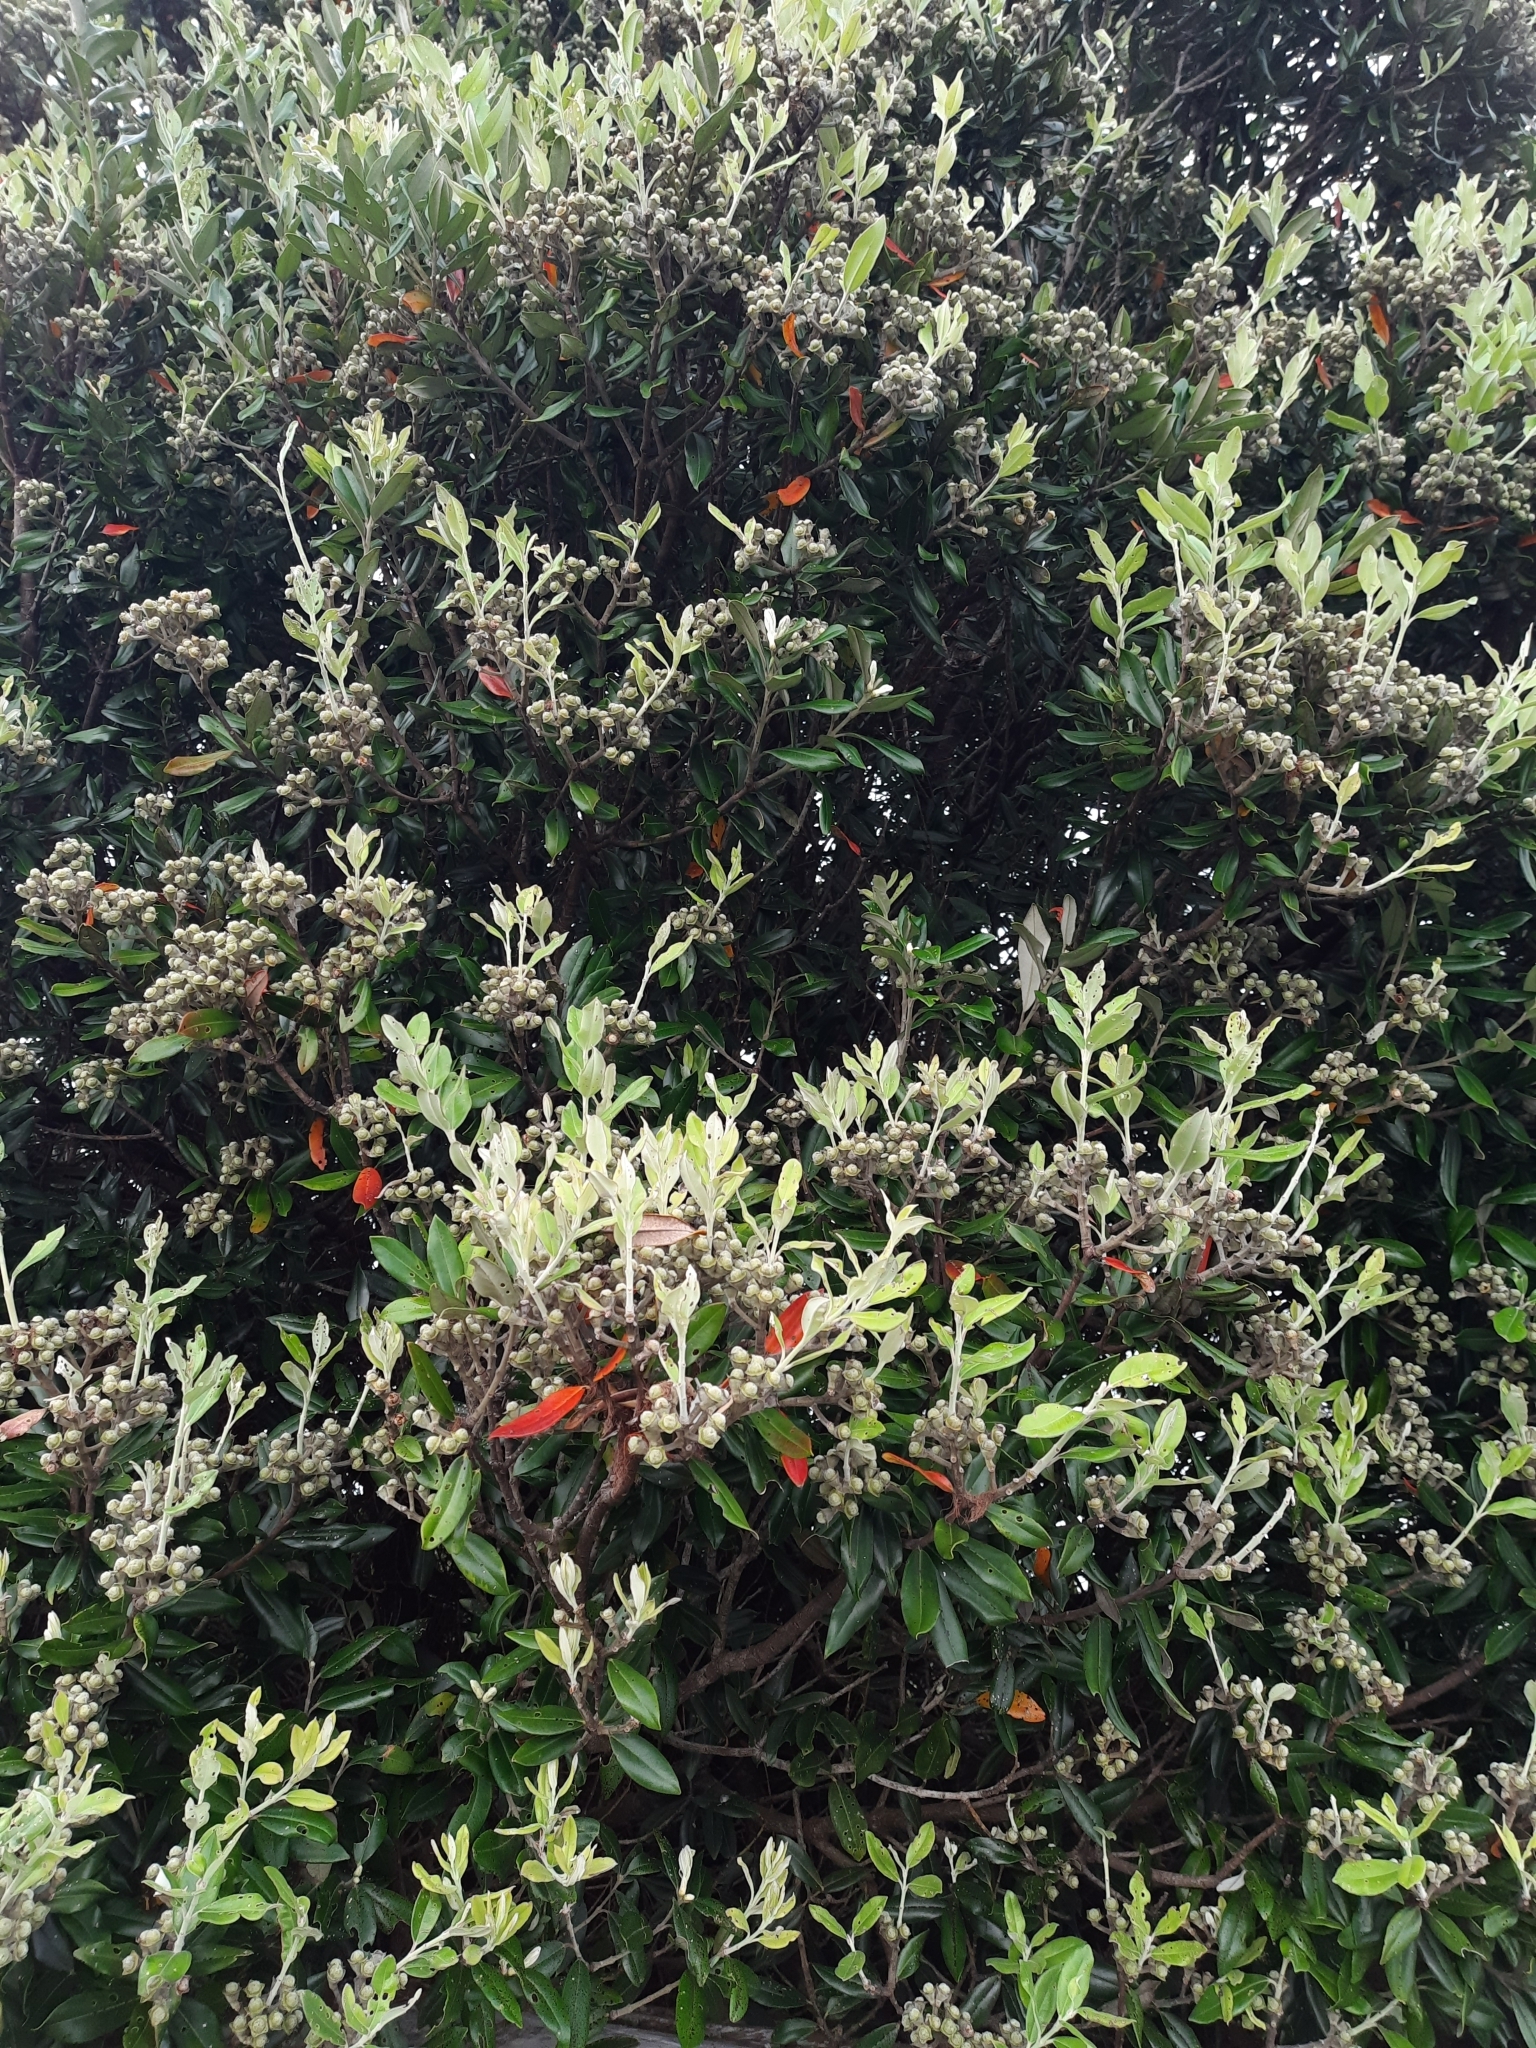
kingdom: Plantae
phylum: Tracheophyta
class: Magnoliopsida
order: Myrtales
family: Myrtaceae
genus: Metrosideros
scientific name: Metrosideros excelsa
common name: New zealand christmastree
